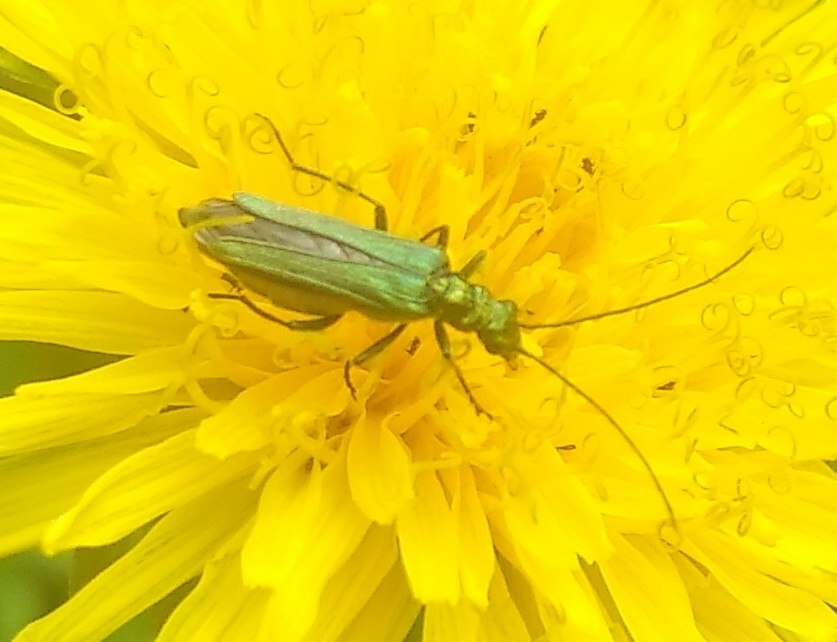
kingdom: Animalia
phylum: Arthropoda
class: Insecta
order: Coleoptera
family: Oedemeridae
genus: Oedemera
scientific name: Oedemera nobilis
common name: Swollen-thighed beetle
